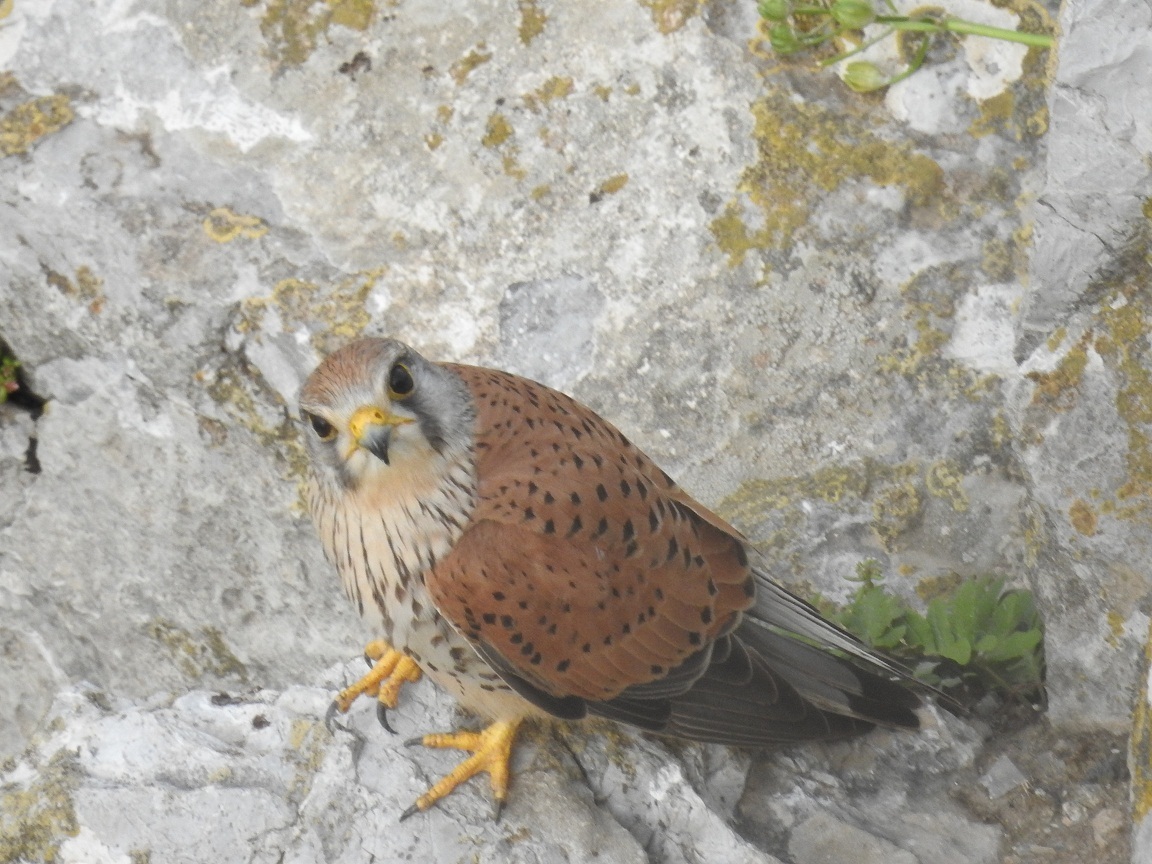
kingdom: Animalia
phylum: Chordata
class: Aves
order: Falconiformes
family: Falconidae
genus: Falco
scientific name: Falco tinnunculus
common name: Common kestrel
